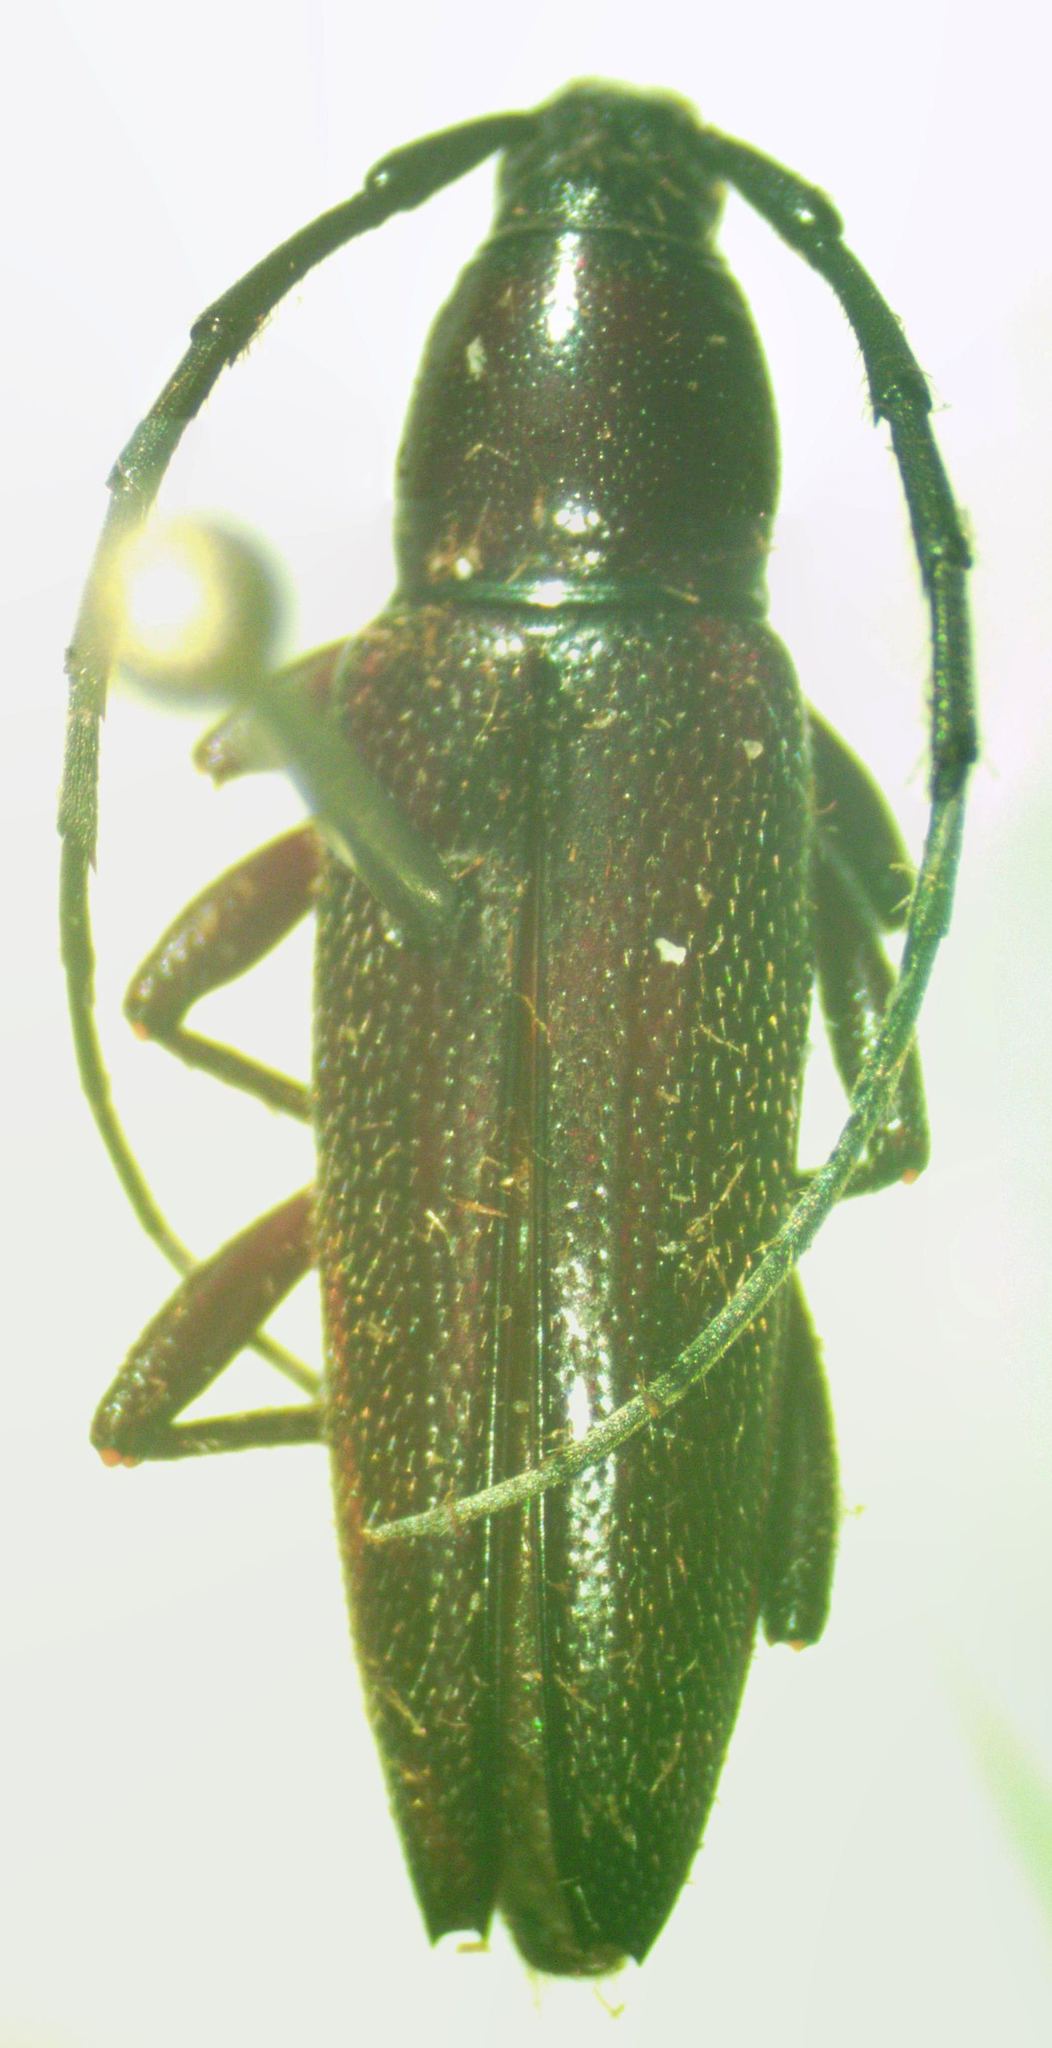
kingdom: Animalia
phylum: Arthropoda
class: Insecta
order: Coleoptera
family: Cerambycidae
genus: Stenosphenus
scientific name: Stenosphenus rufipes
